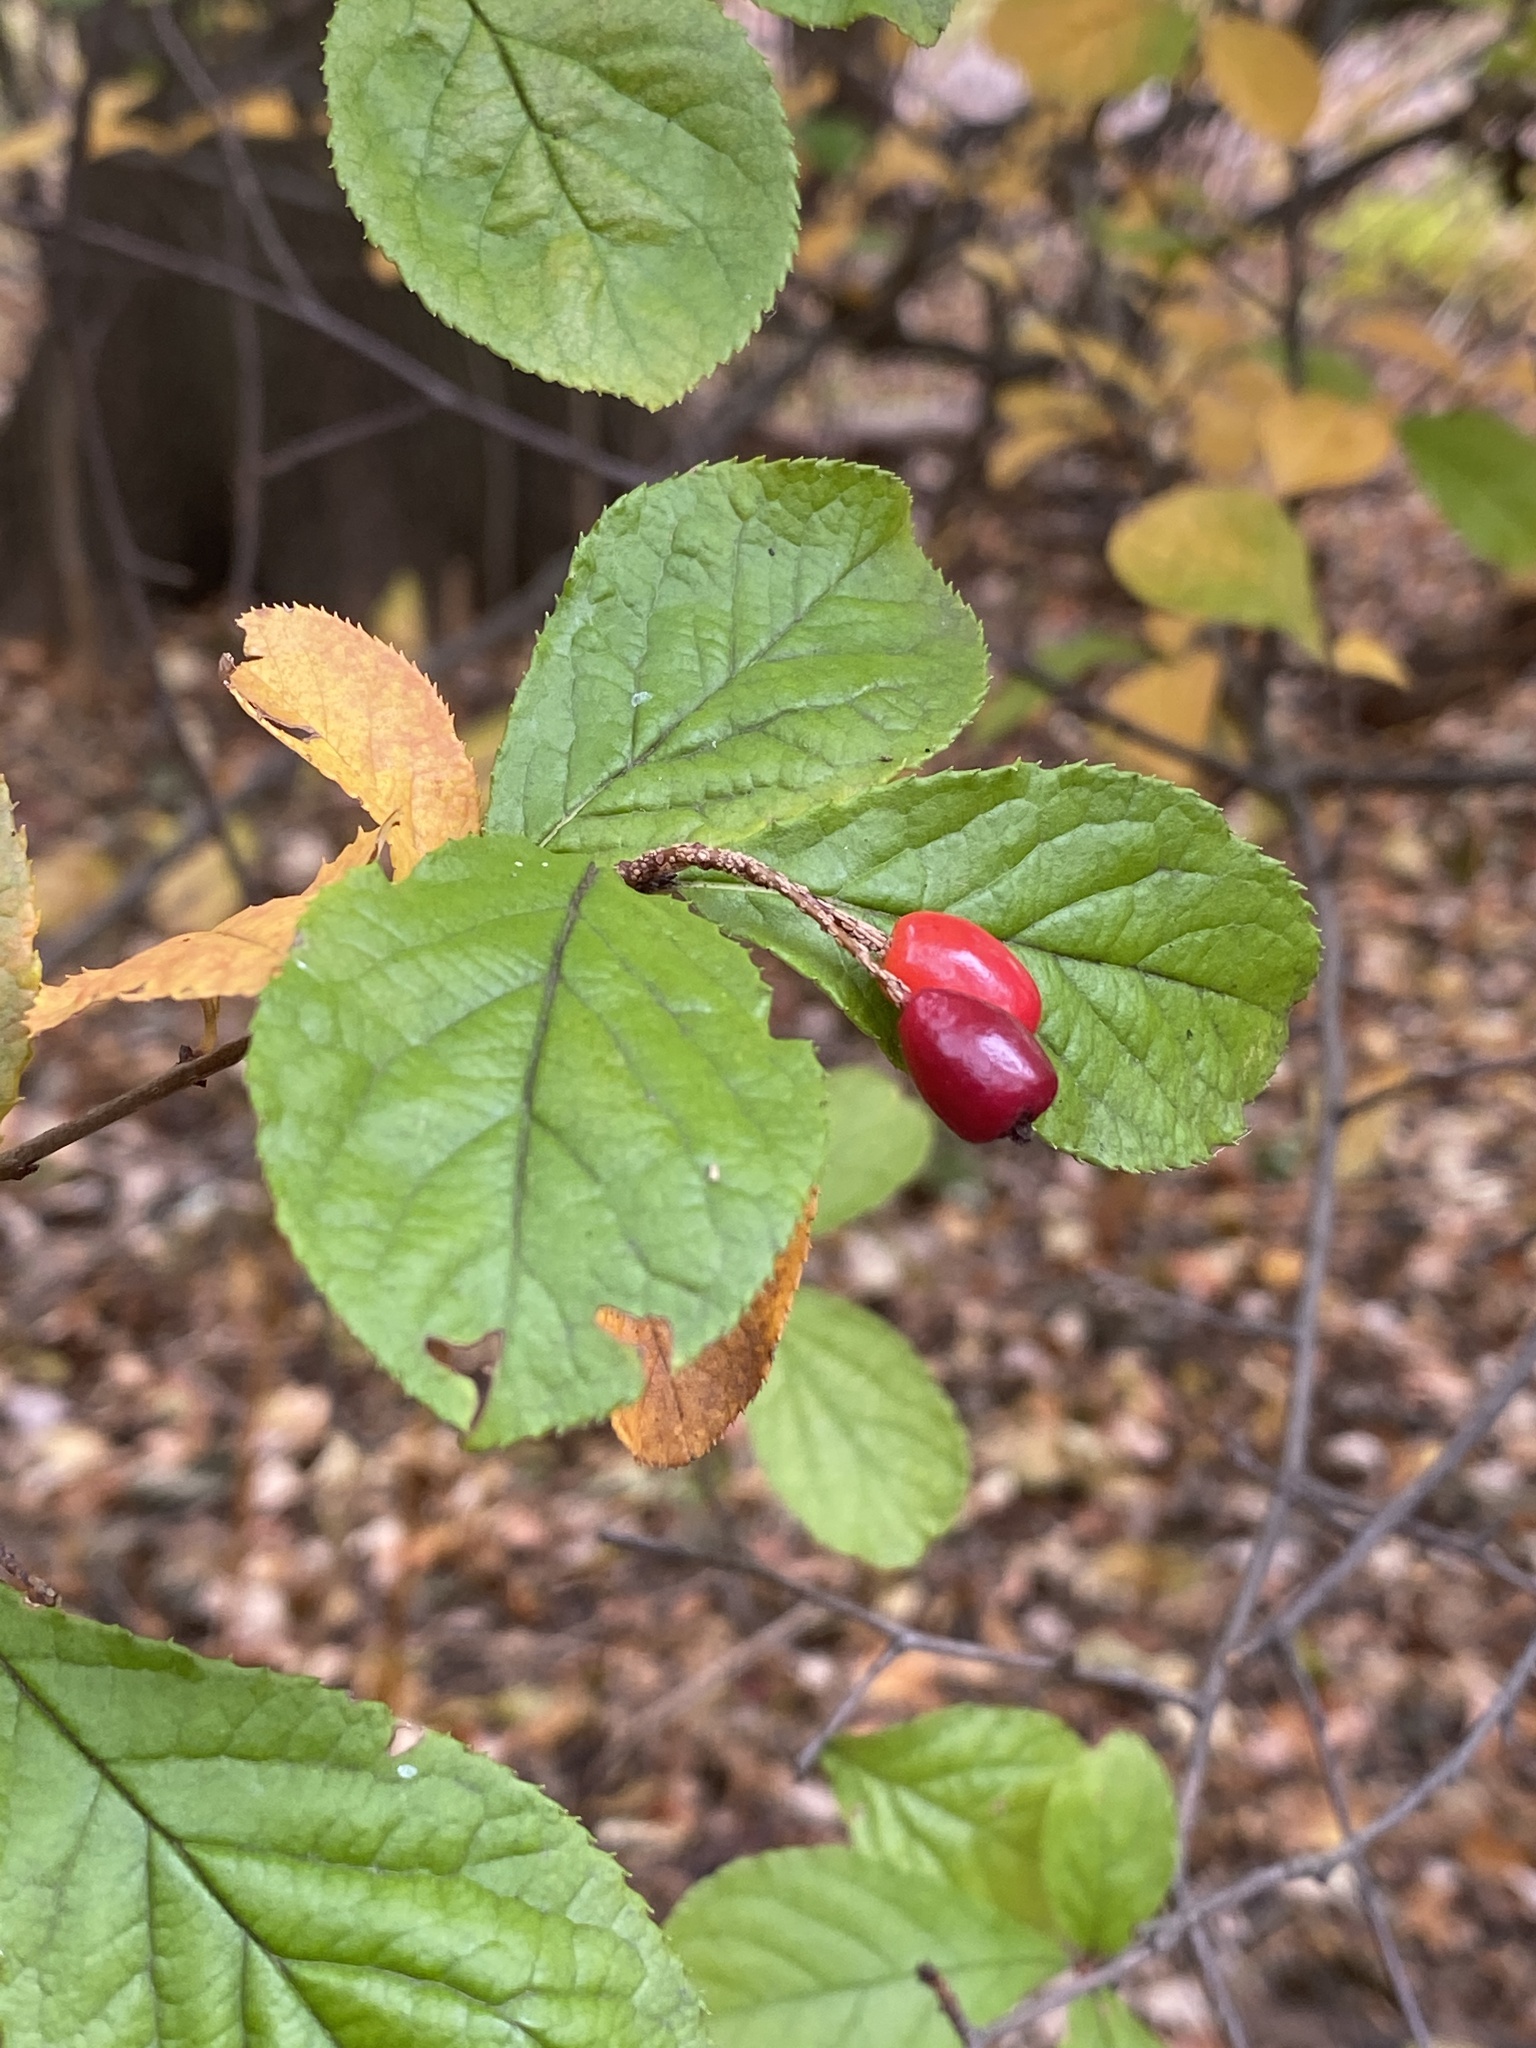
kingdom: Plantae
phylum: Tracheophyta
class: Magnoliopsida
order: Rosales
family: Rosaceae
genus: Pourthiaea
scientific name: Pourthiaea villosa
